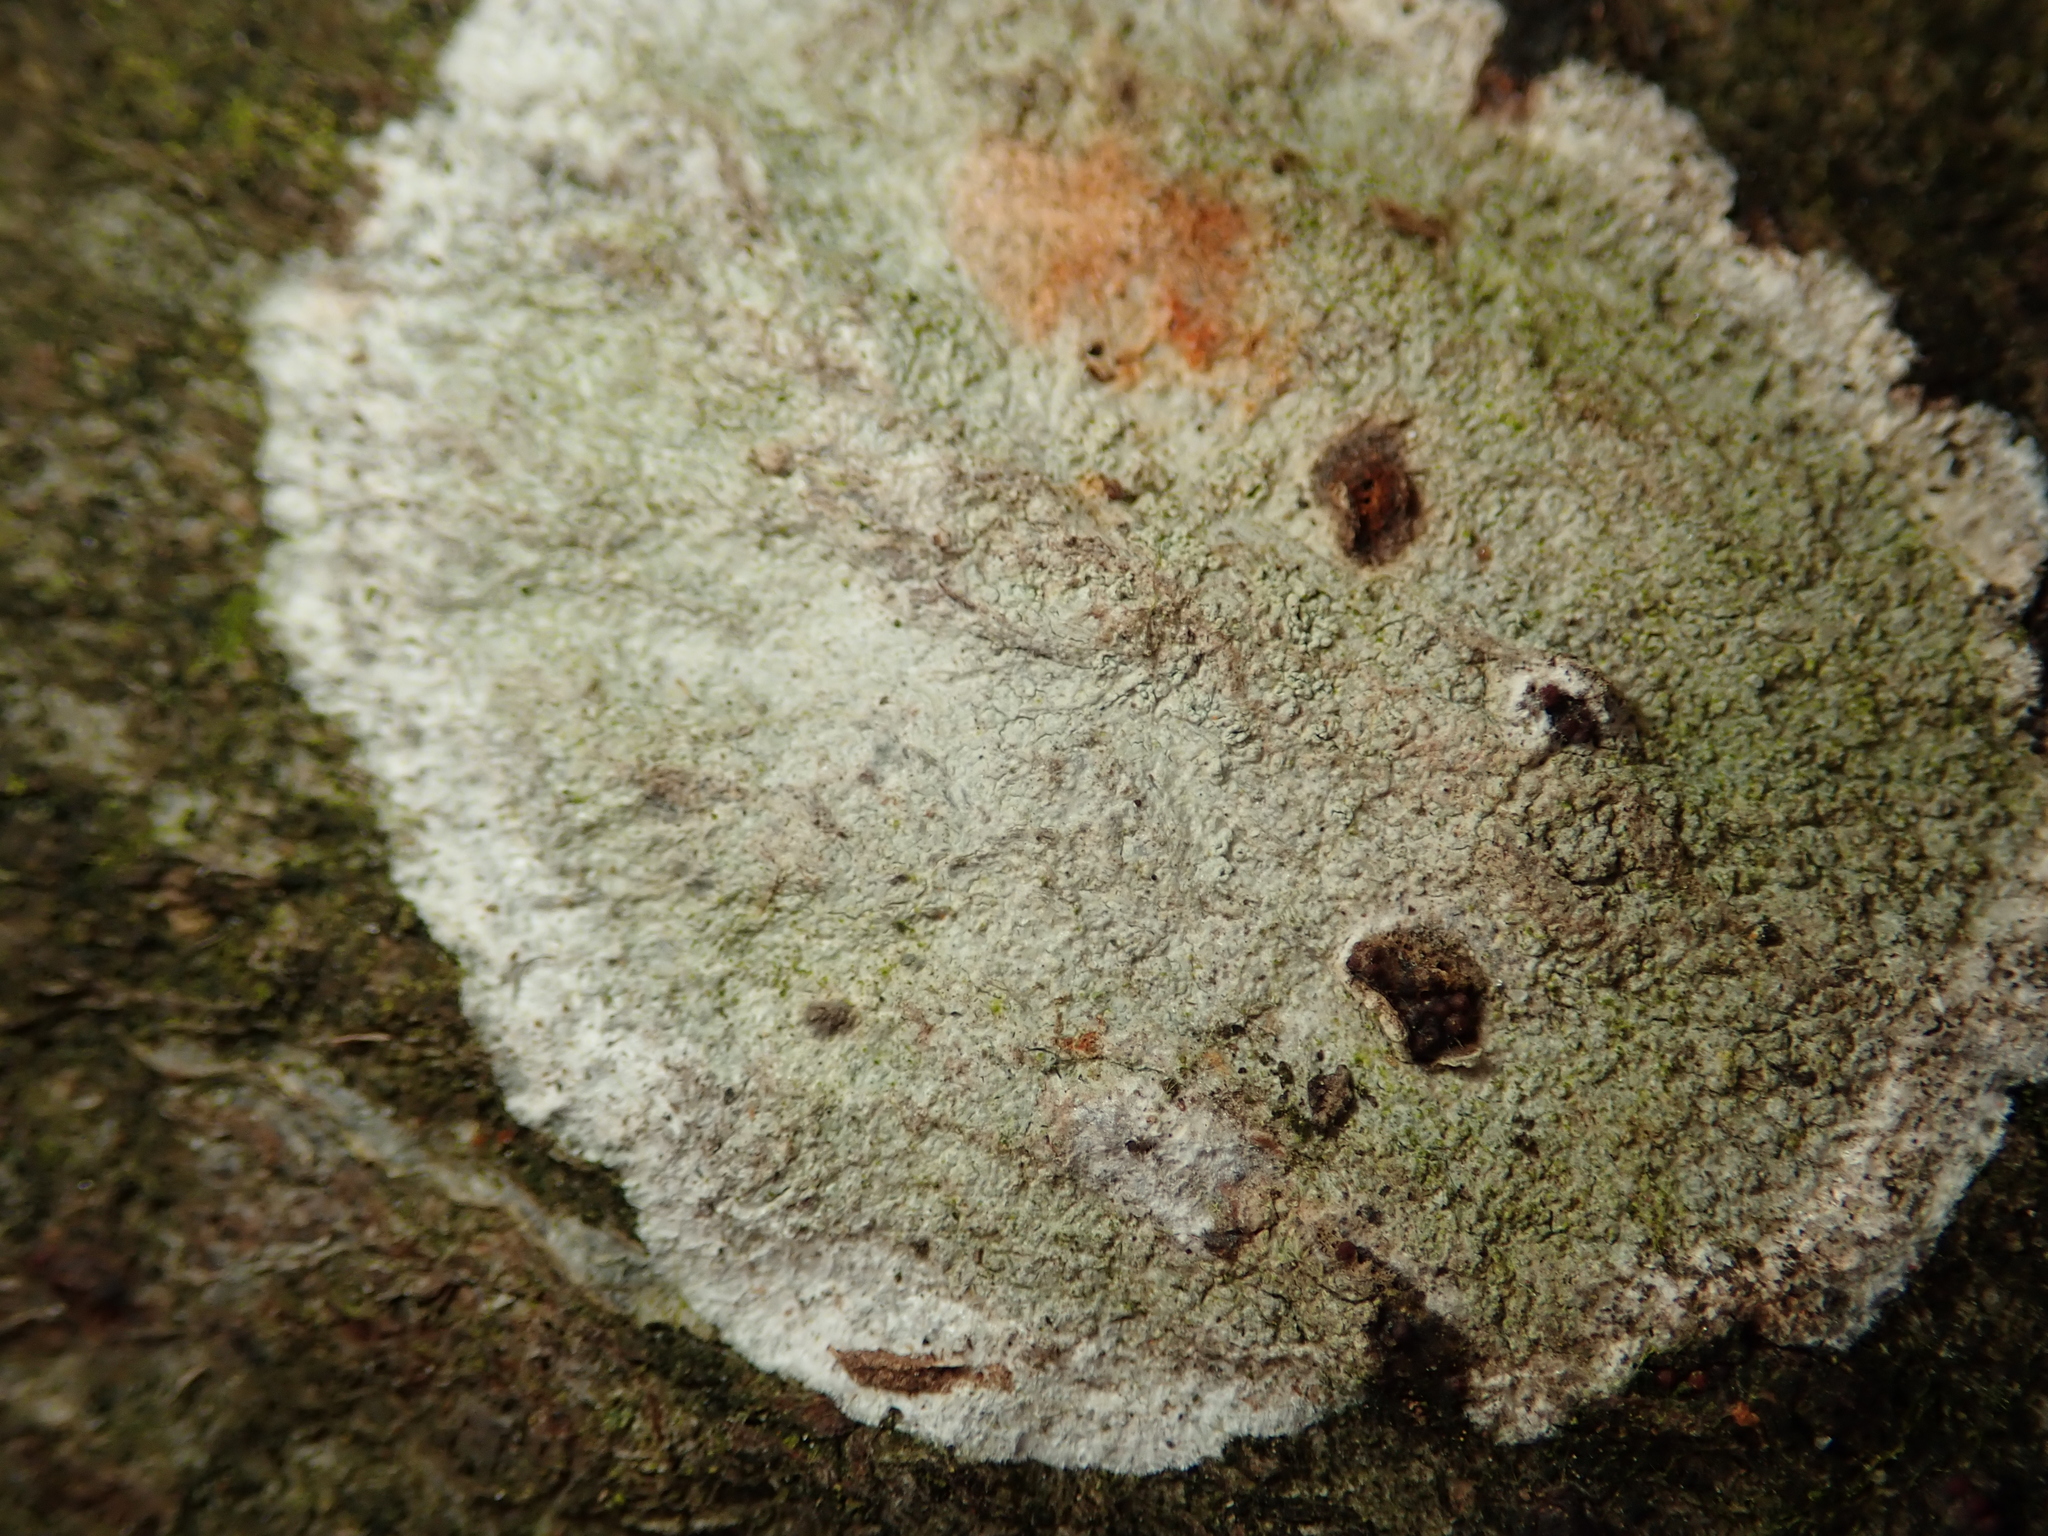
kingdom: Fungi
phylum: Ascomycota
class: Lecanoromycetes
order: Ostropales
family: Phlyctidaceae
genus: Phlyctis
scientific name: Phlyctis argena
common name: Whitewash lichen
